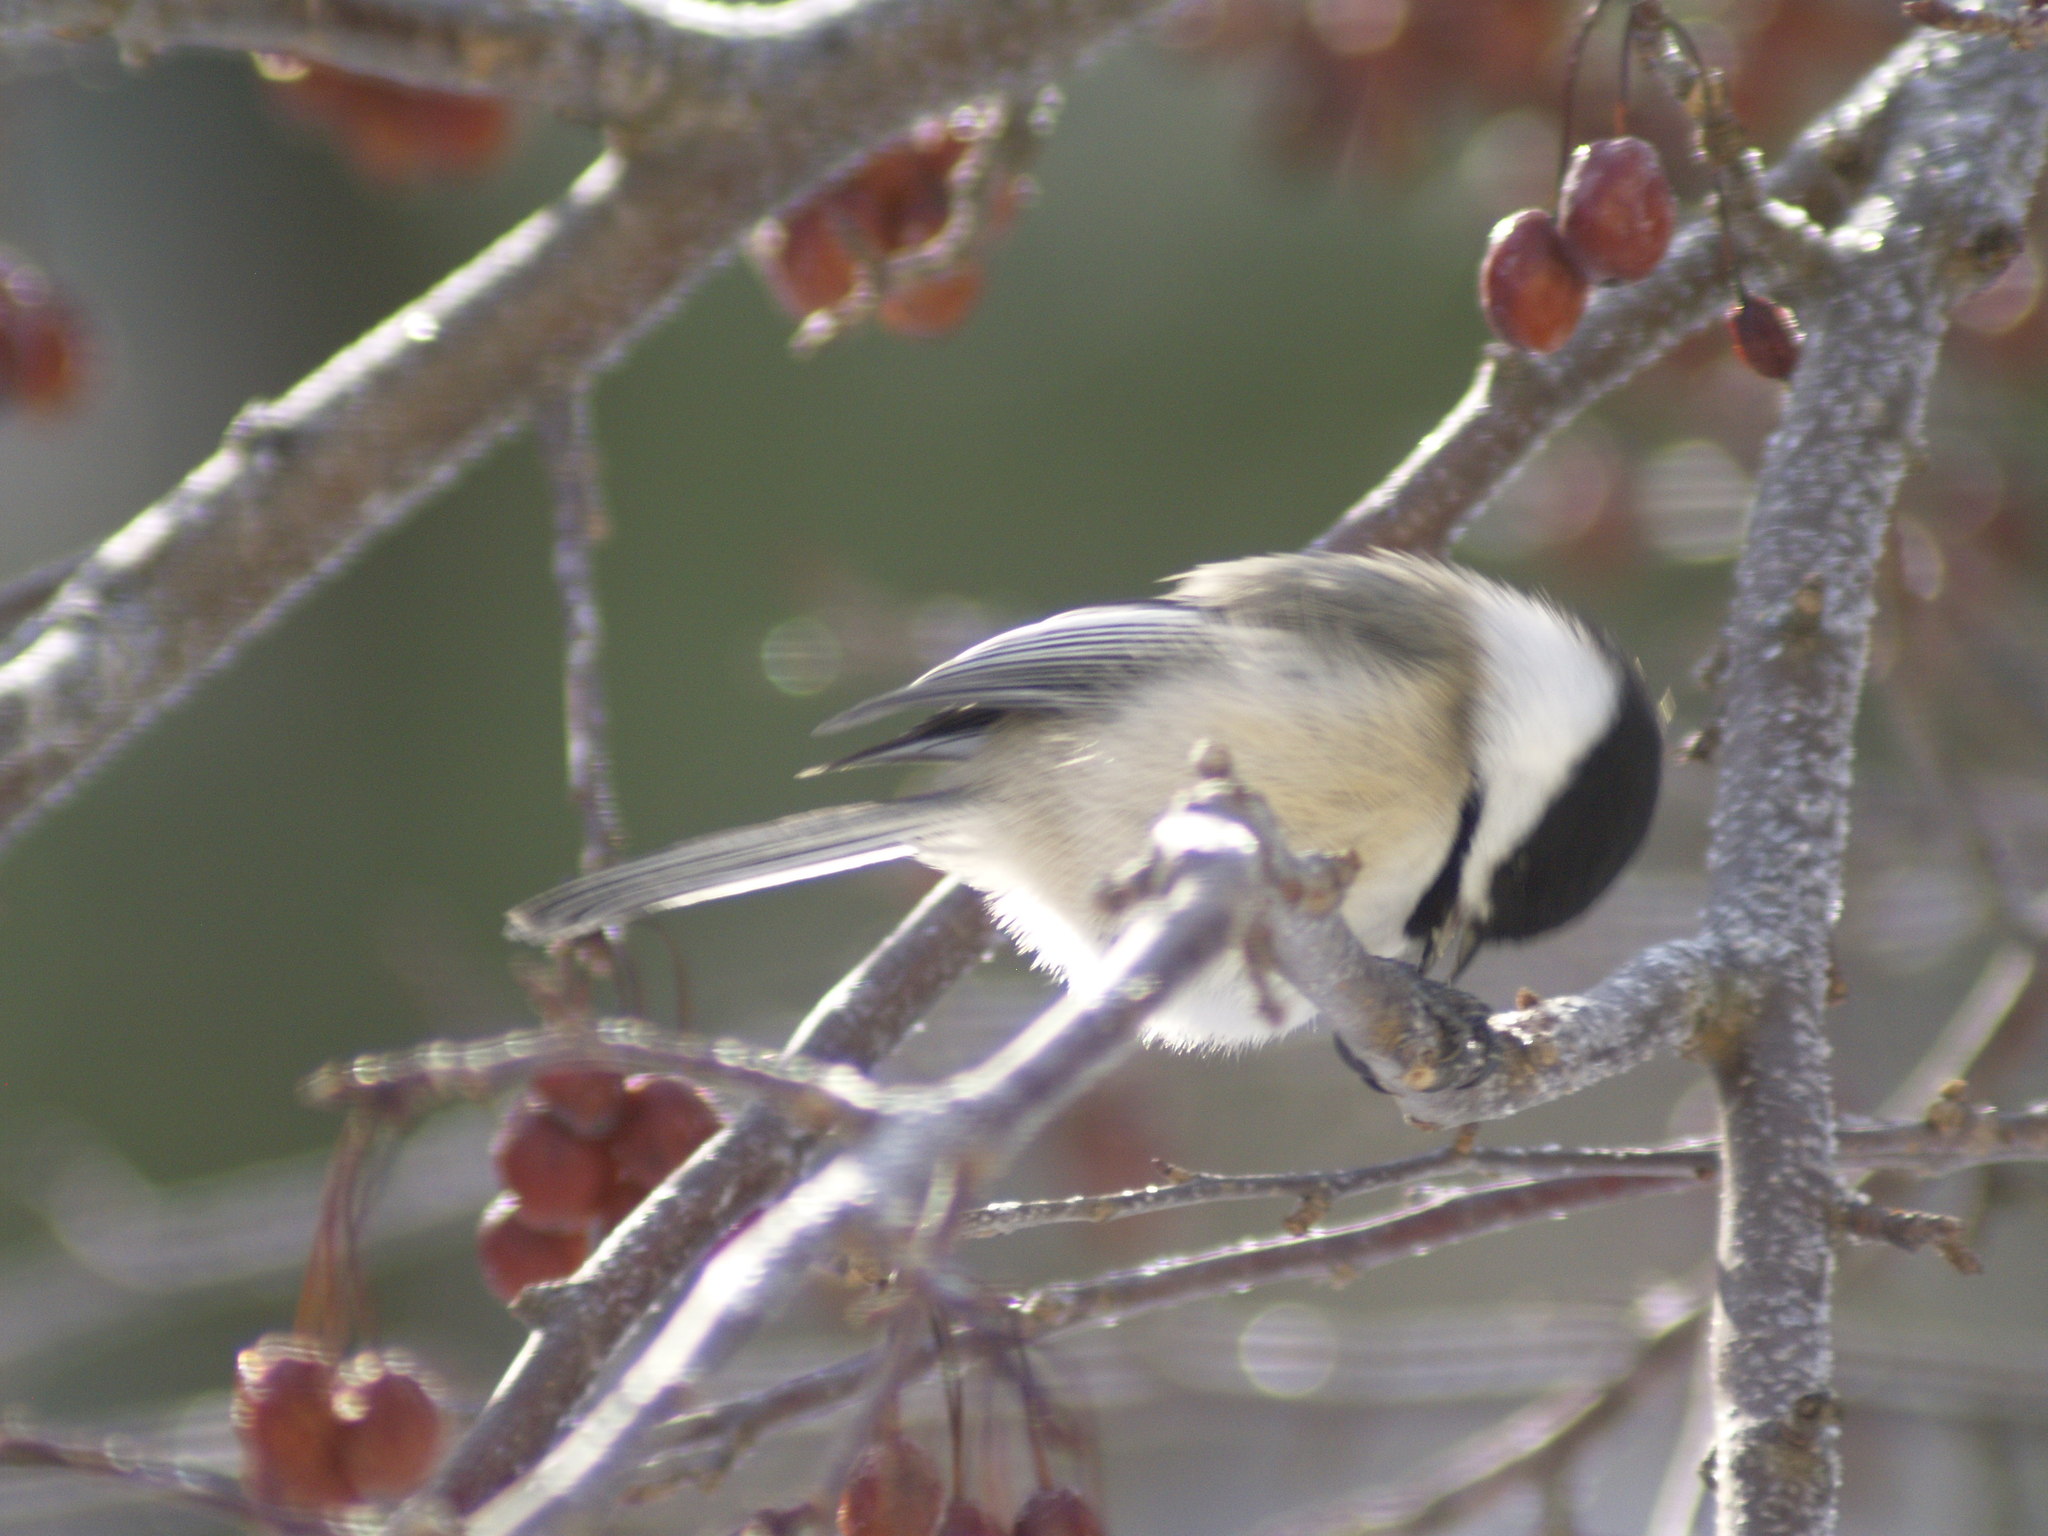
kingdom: Animalia
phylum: Chordata
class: Aves
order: Passeriformes
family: Paridae
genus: Poecile
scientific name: Poecile atricapillus
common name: Black-capped chickadee
